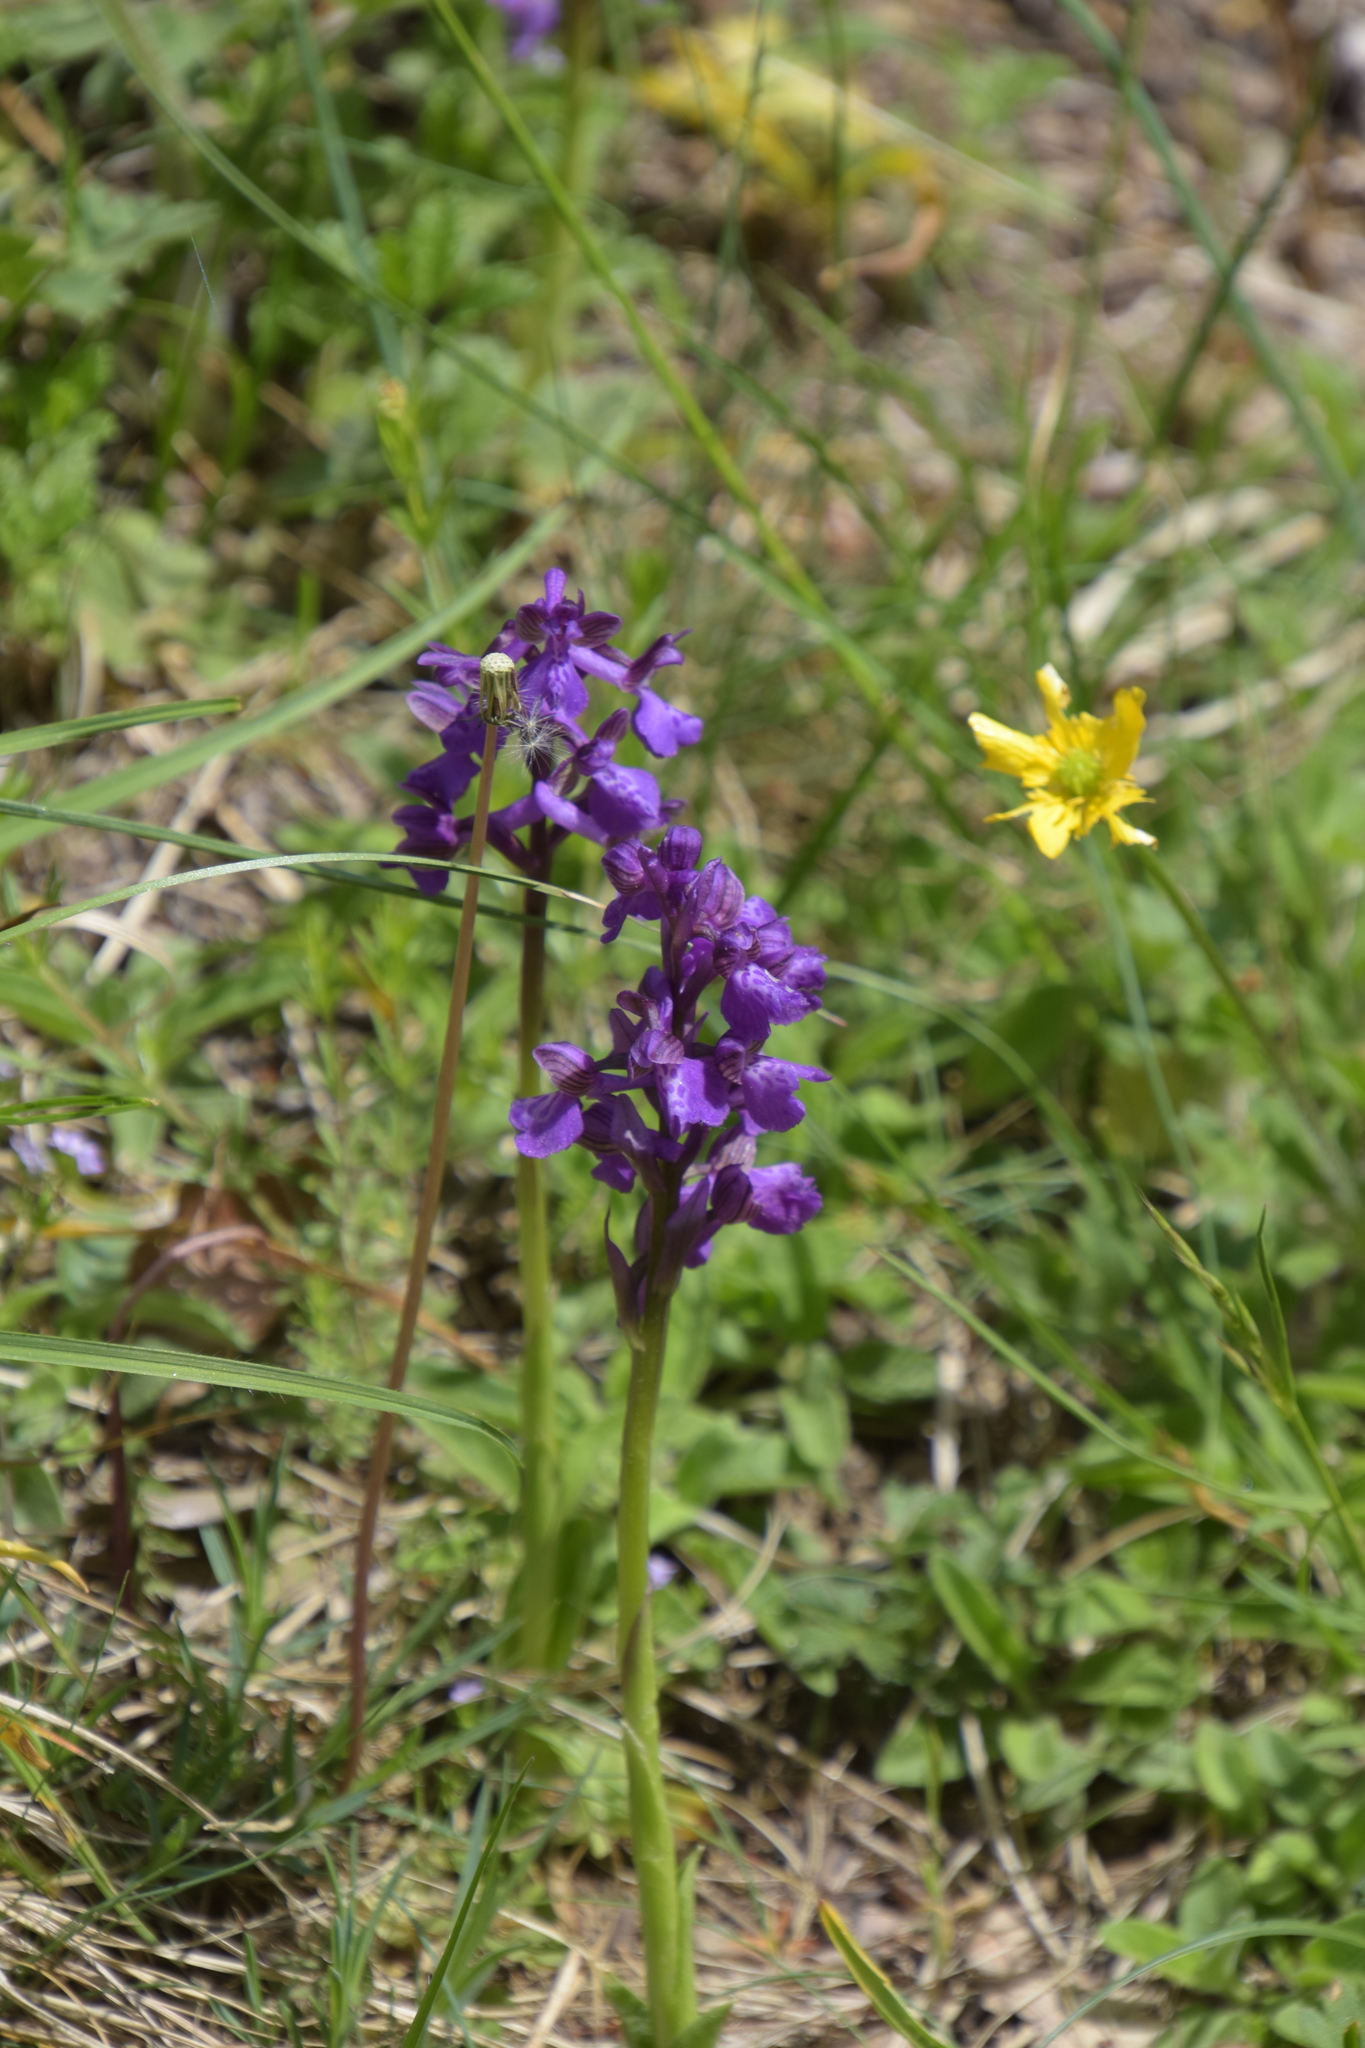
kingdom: Plantae
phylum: Tracheophyta
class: Liliopsida
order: Asparagales
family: Orchidaceae
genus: Anacamptis
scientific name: Anacamptis morio
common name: Green-winged orchid
